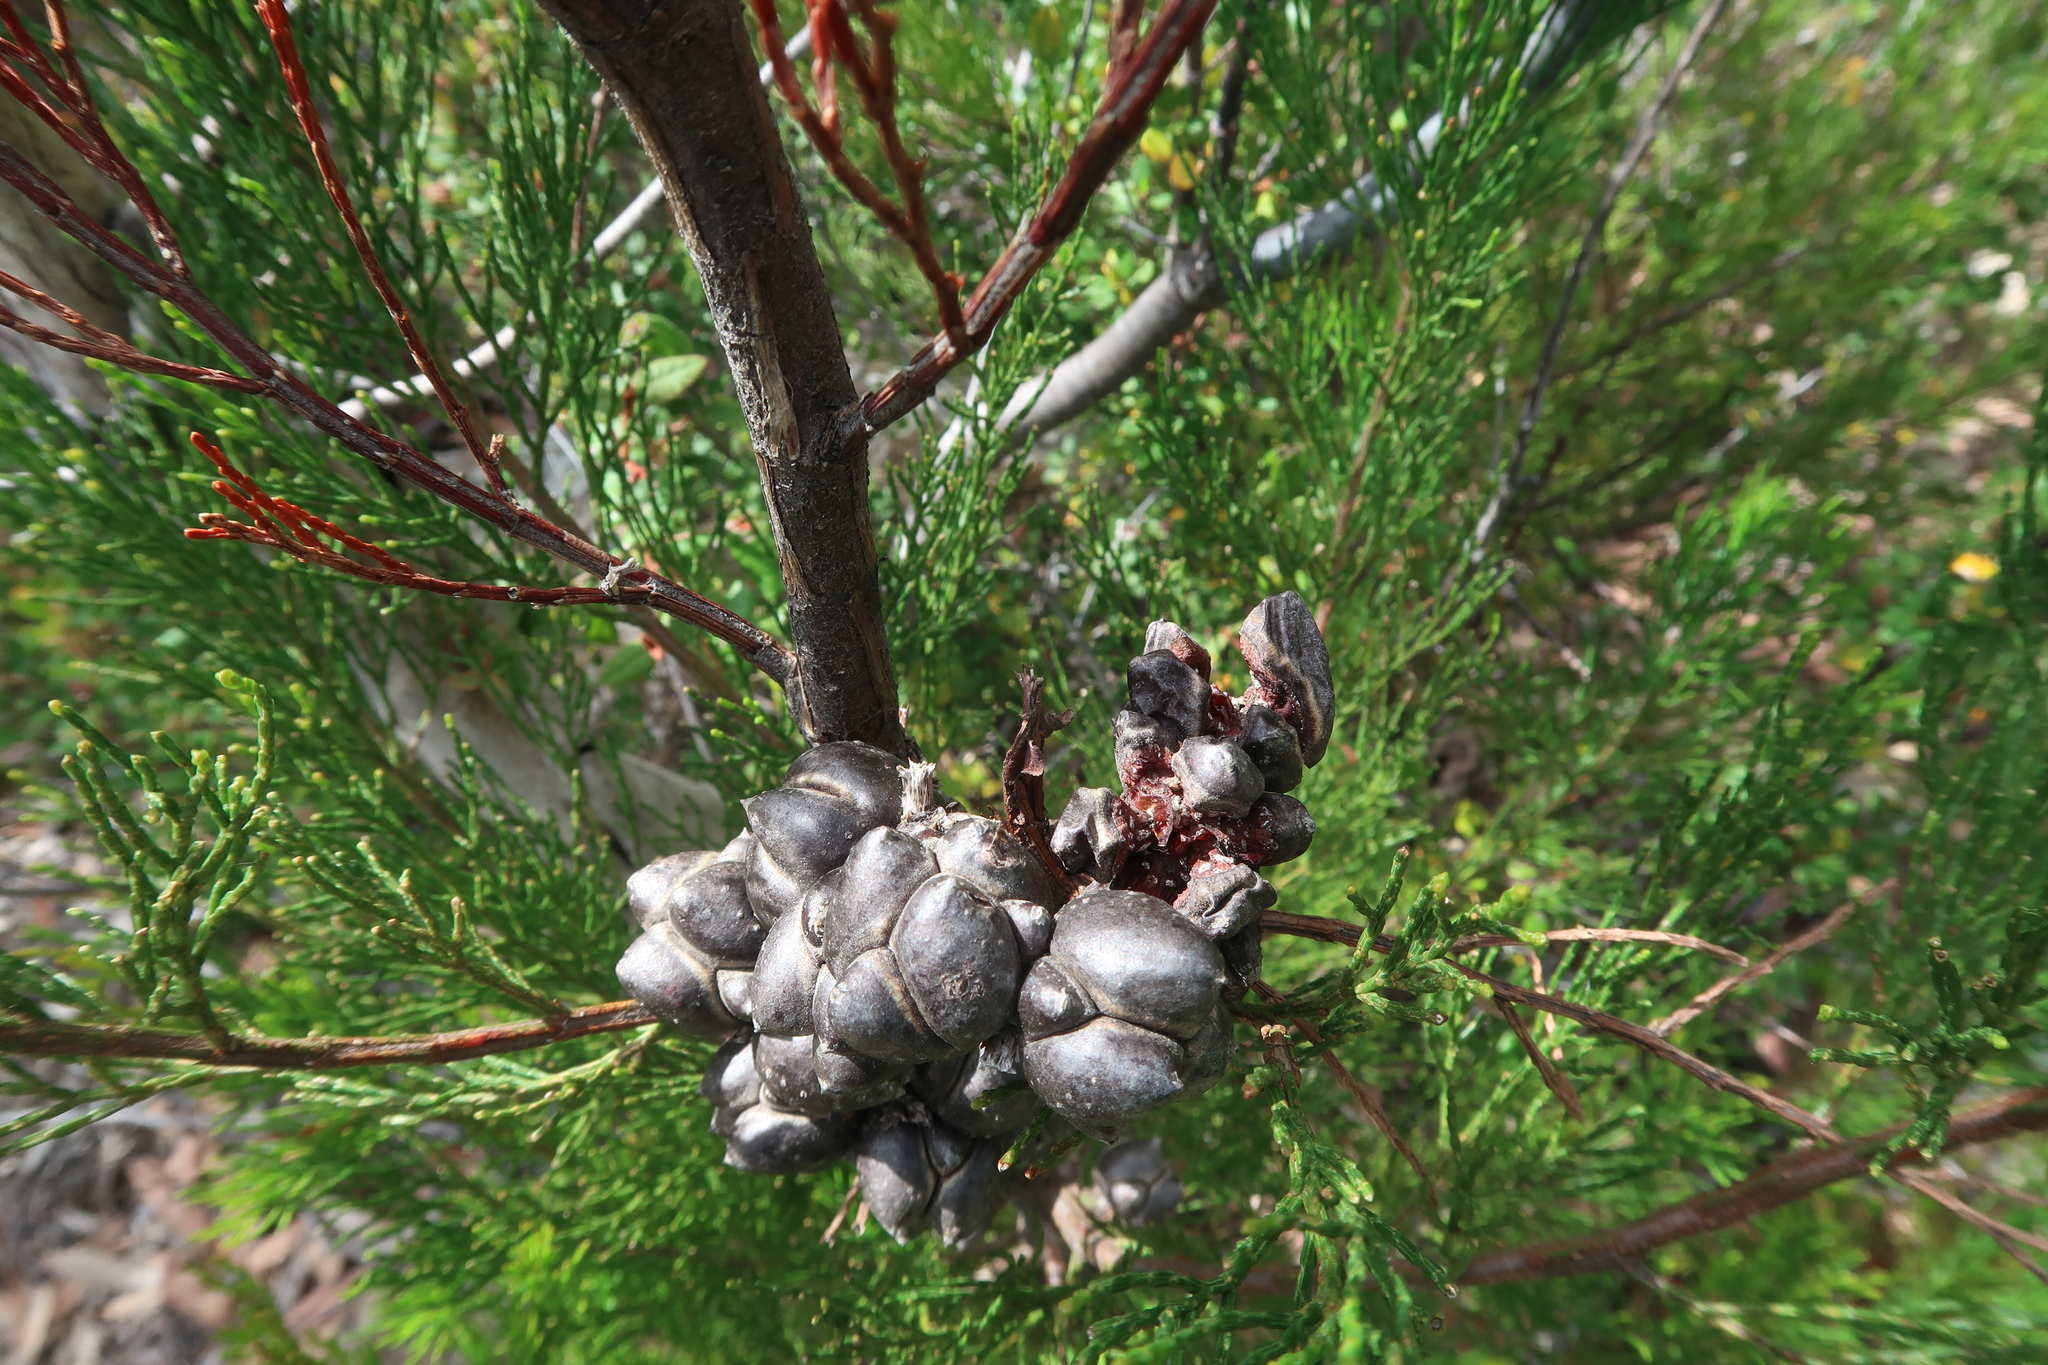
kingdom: Plantae
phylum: Tracheophyta
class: Pinopsida
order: Pinales
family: Cupressaceae
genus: Callitris
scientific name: Callitris rhomboidea
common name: Illawara mountain pine
